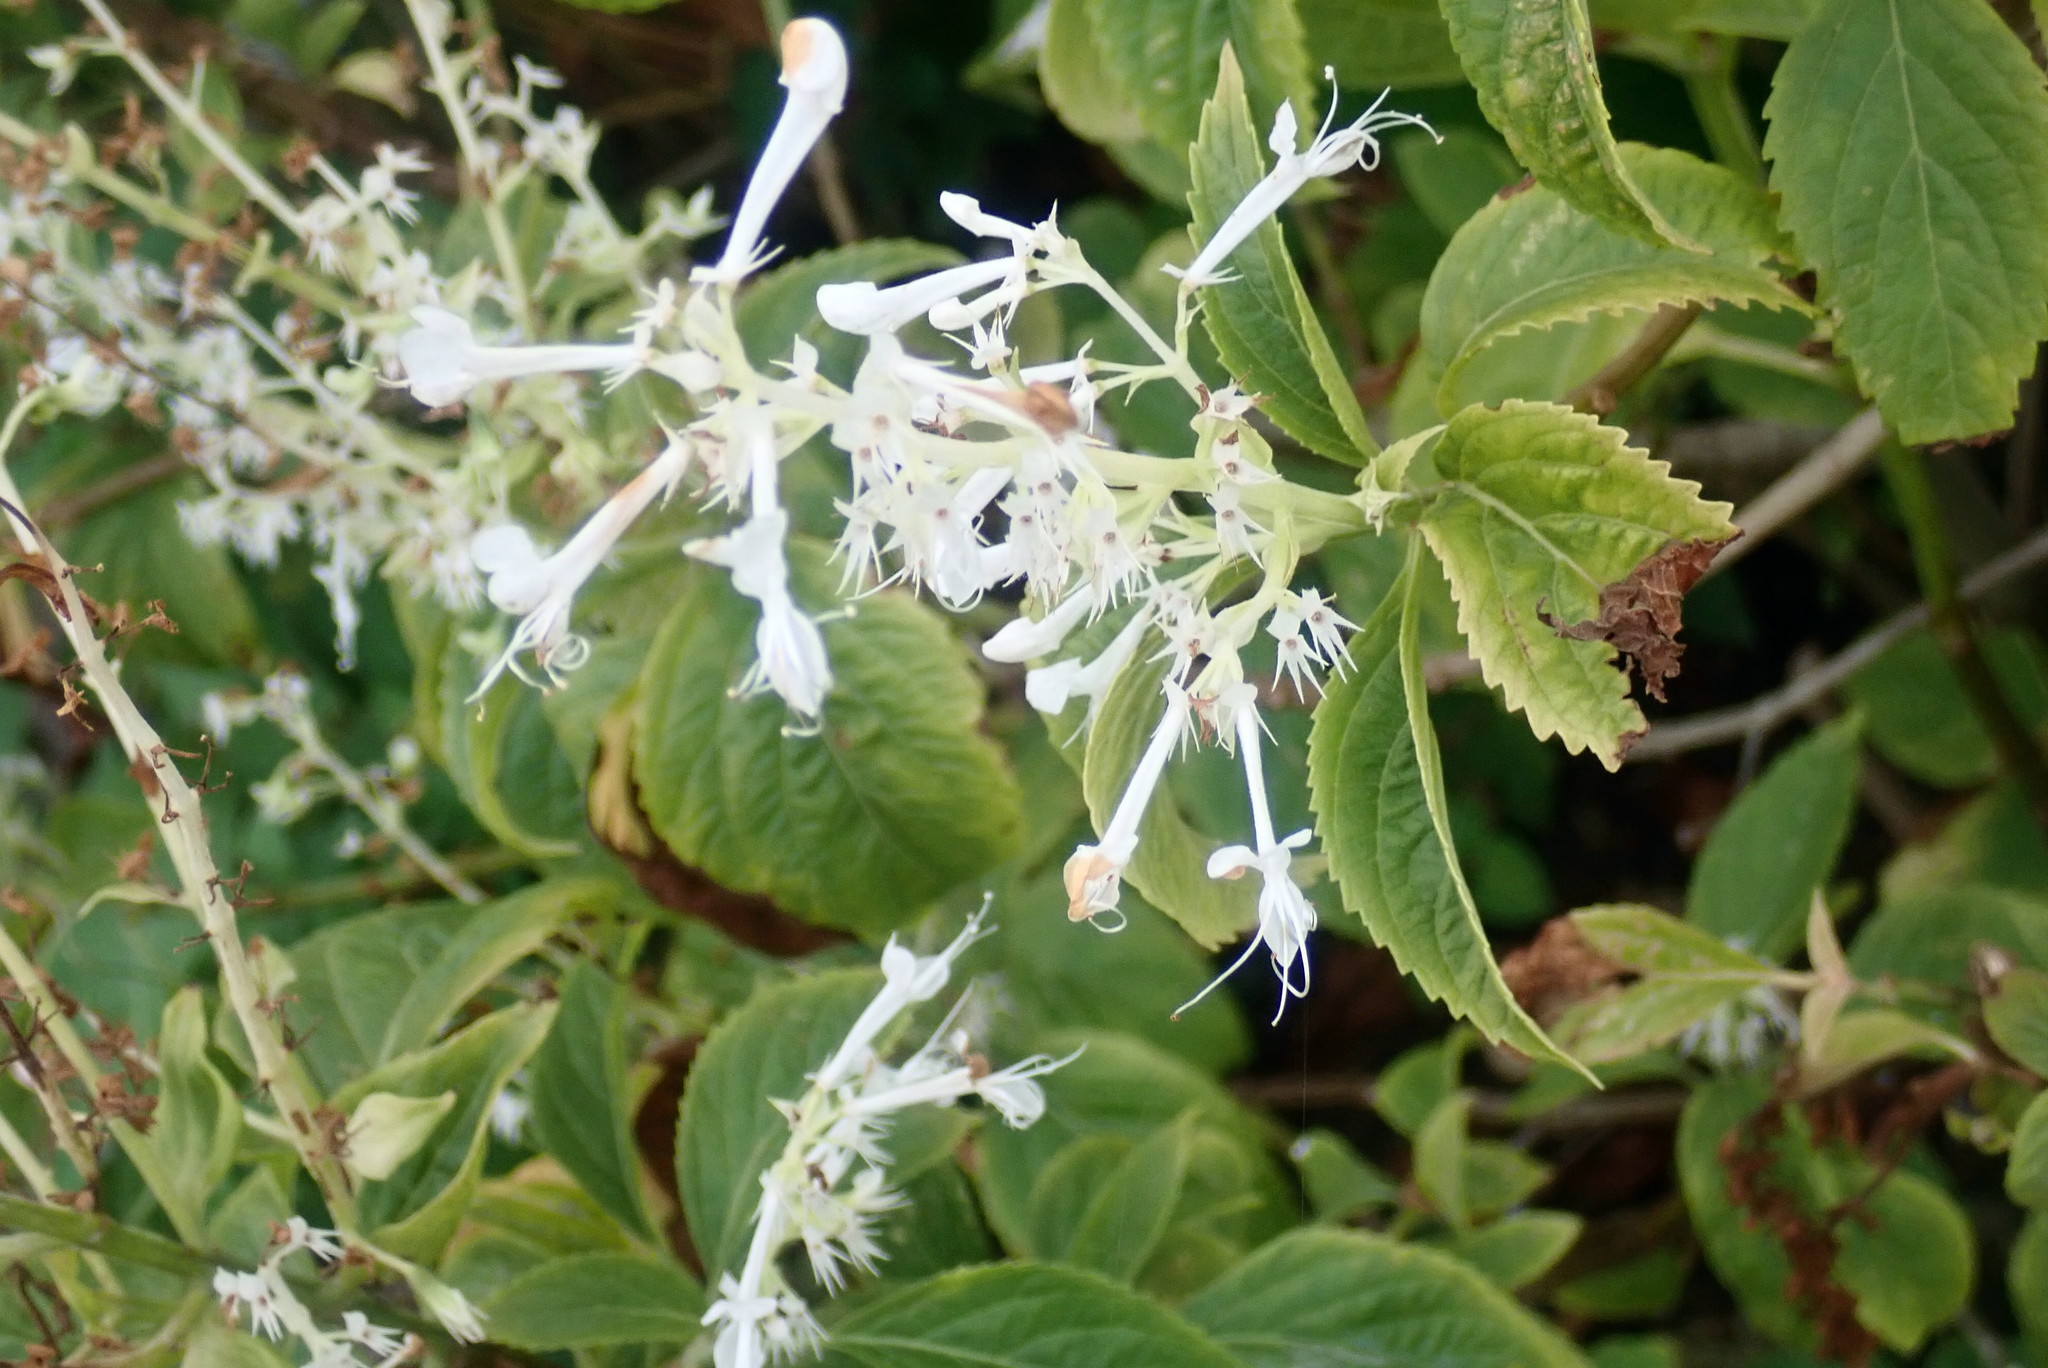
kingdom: Plantae
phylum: Tracheophyta
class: Magnoliopsida
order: Lamiales
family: Lamiaceae
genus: Plectranthus
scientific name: Plectranthus ciliatus
